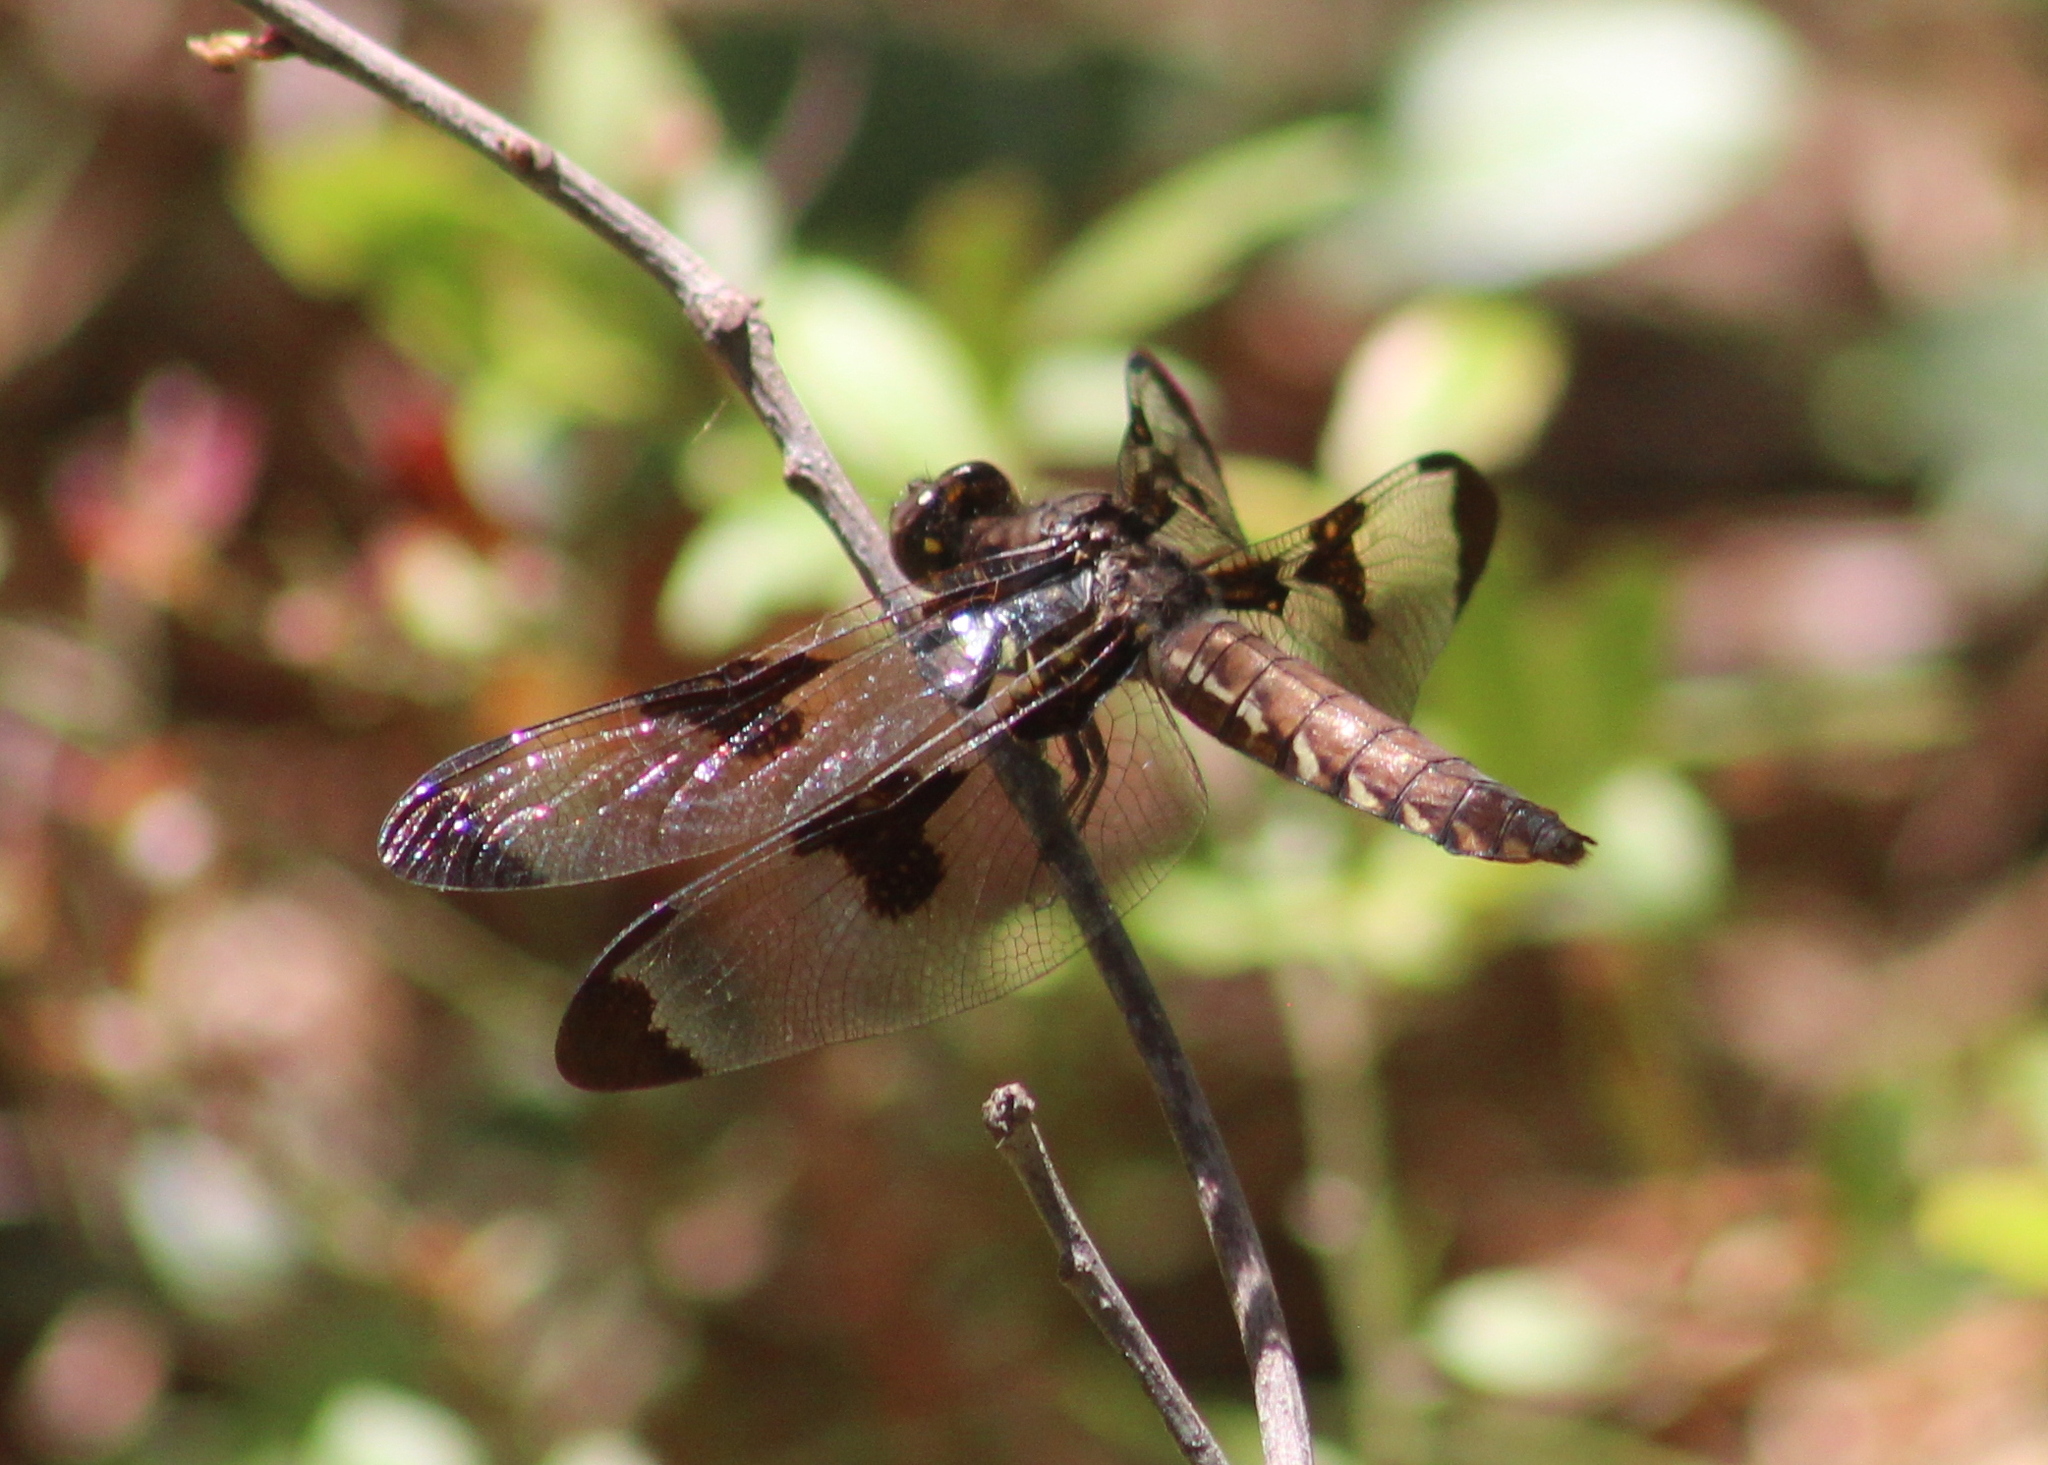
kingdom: Animalia
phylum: Arthropoda
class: Insecta
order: Odonata
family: Libellulidae
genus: Plathemis
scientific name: Plathemis lydia
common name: Common whitetail
